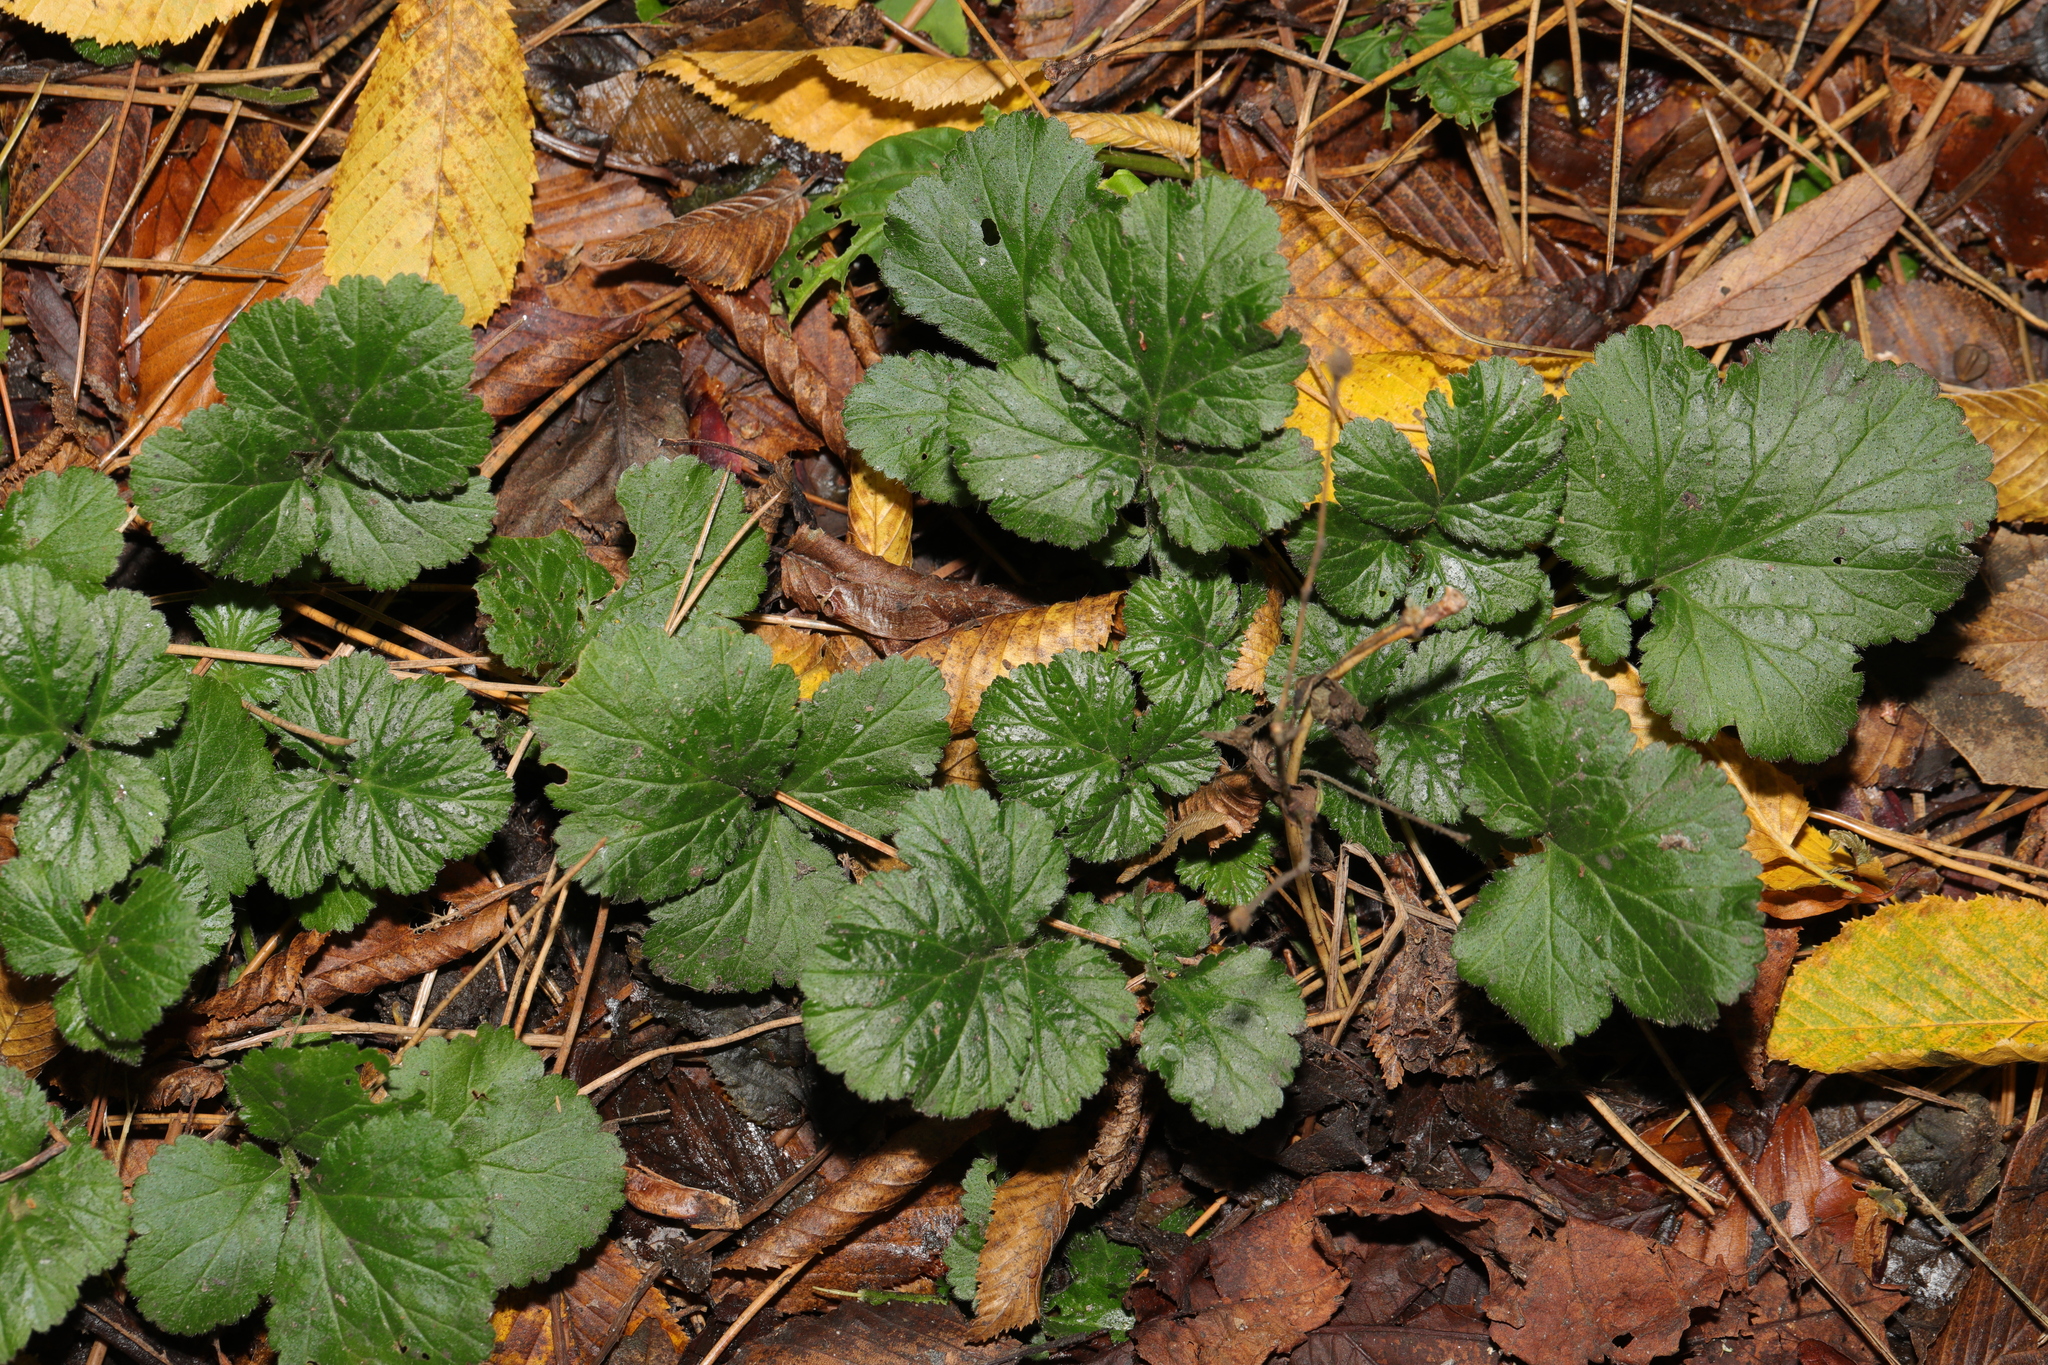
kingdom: Plantae
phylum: Tracheophyta
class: Magnoliopsida
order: Rosales
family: Rosaceae
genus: Geum
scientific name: Geum urbanum
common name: Wood avens
